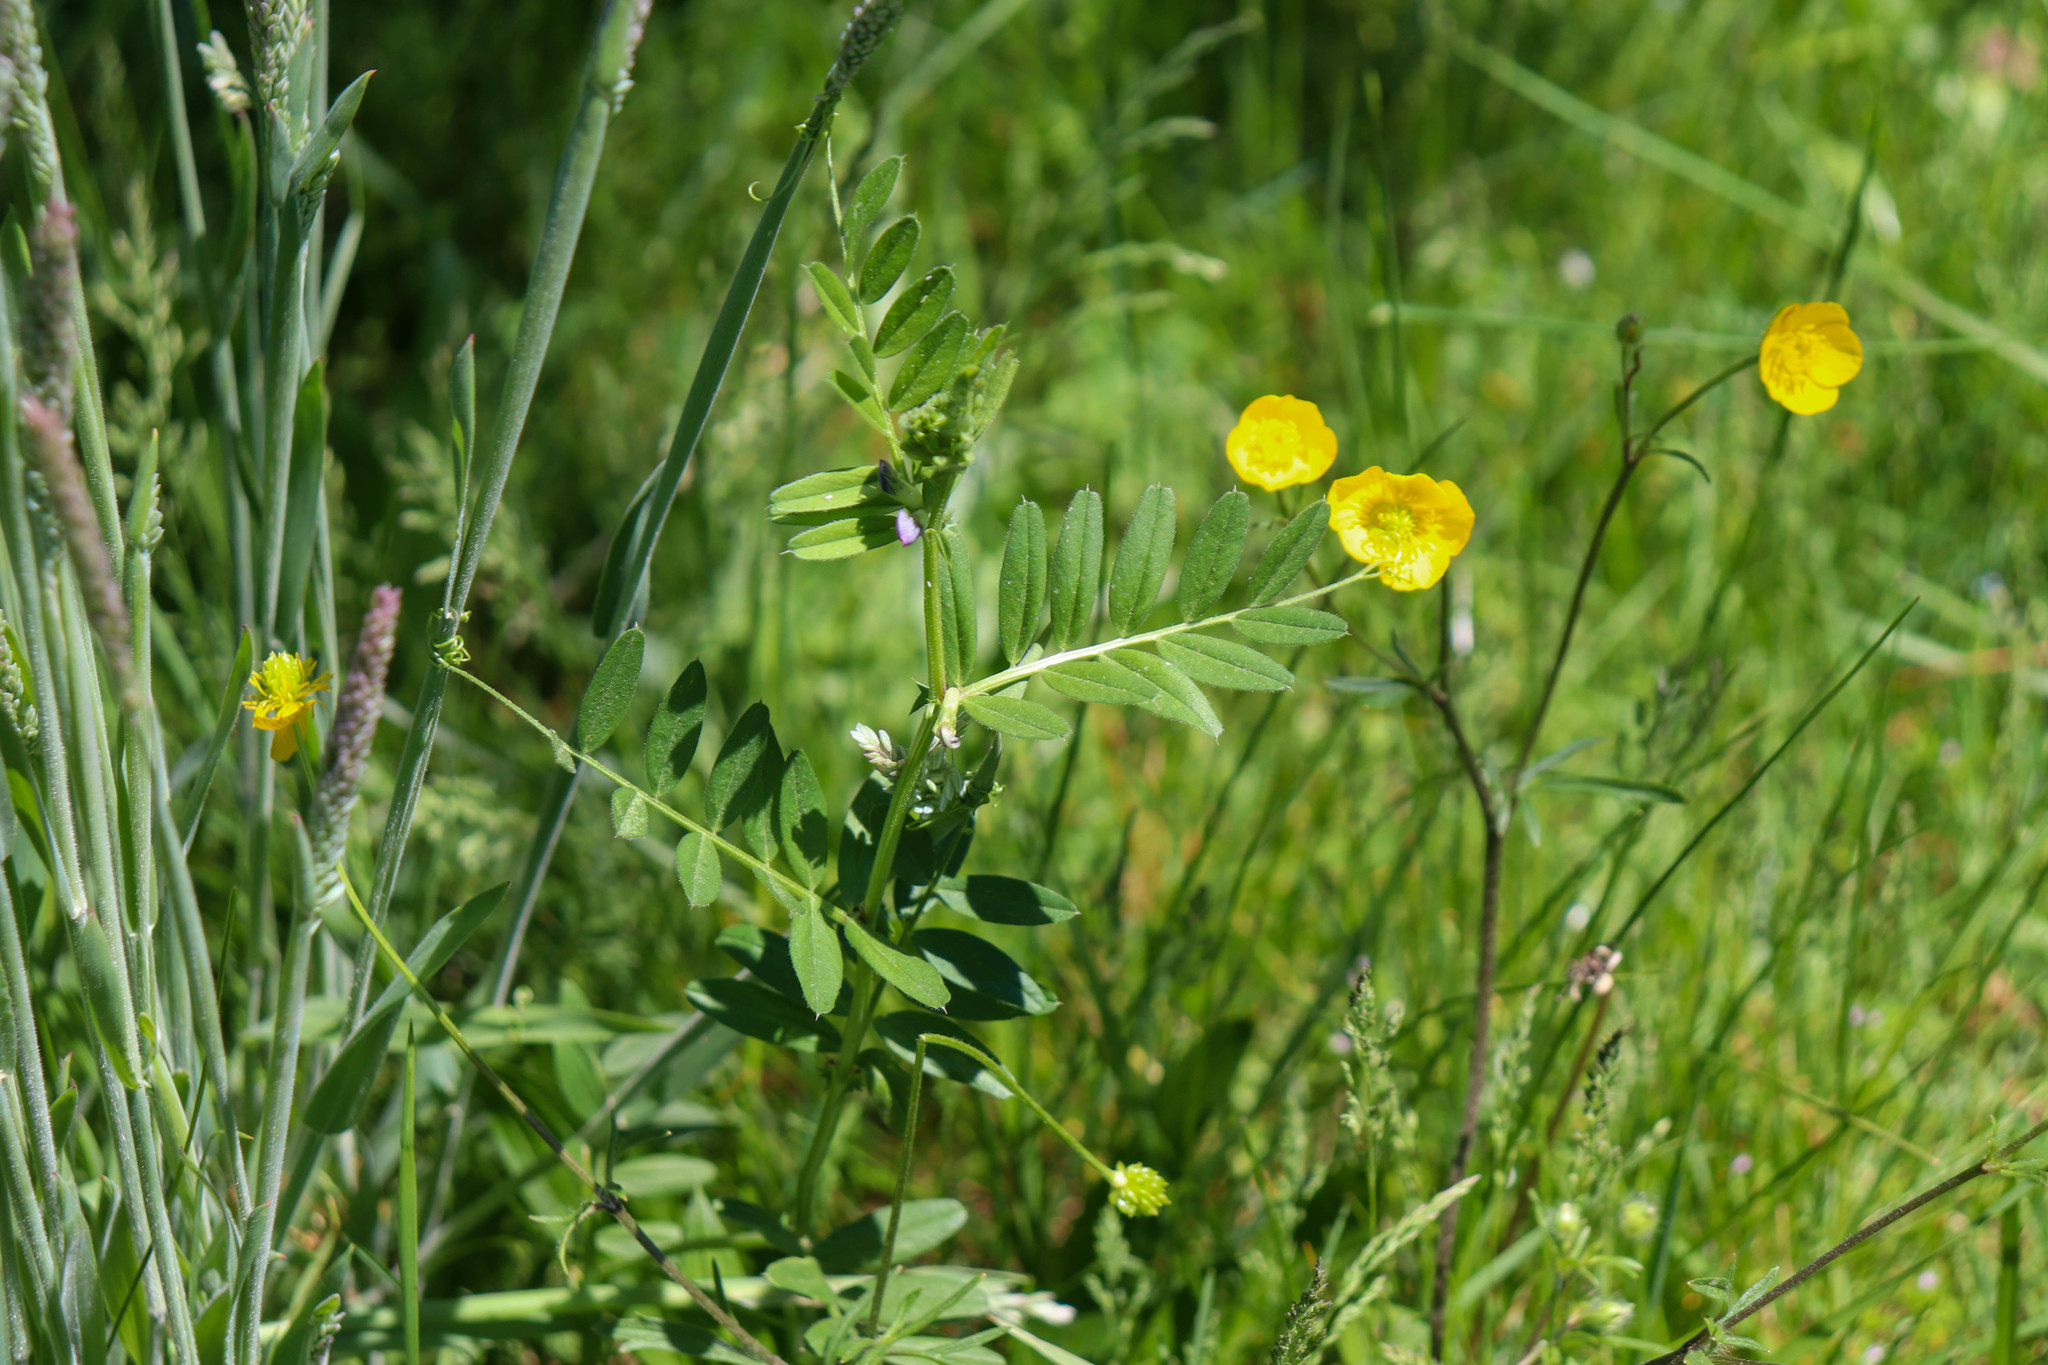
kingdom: Plantae
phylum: Tracheophyta
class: Magnoliopsida
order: Fabales
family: Fabaceae
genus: Vicia
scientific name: Vicia sativa
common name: Garden vetch
